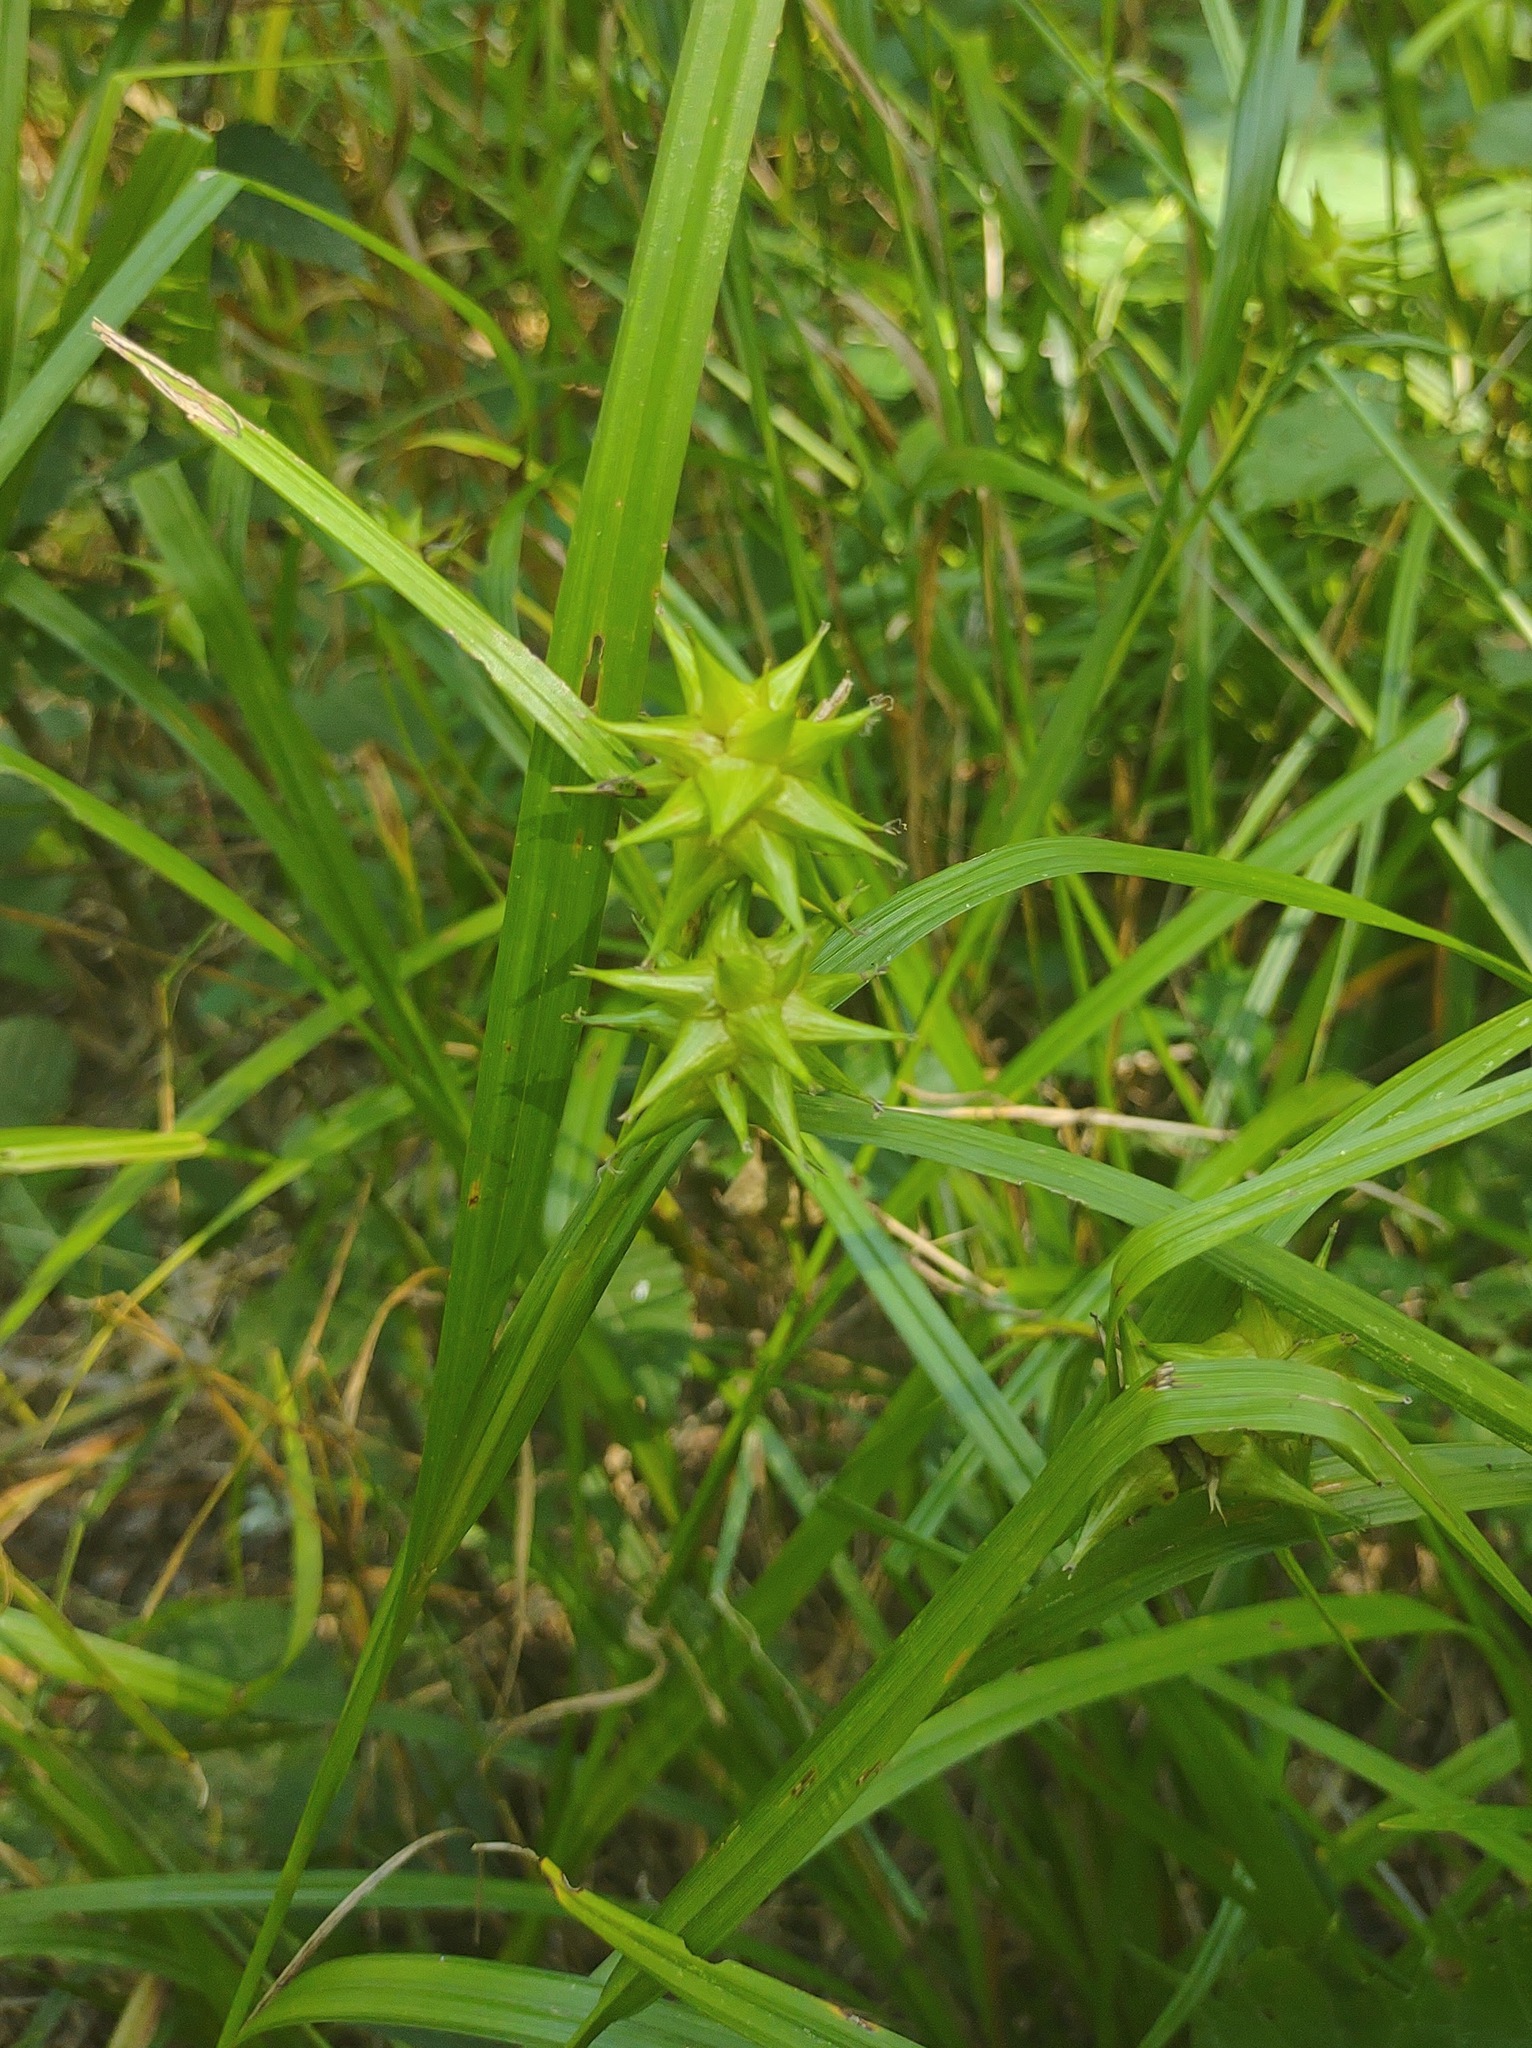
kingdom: Plantae
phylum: Tracheophyta
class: Liliopsida
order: Poales
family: Cyperaceae
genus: Carex
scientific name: Carex grayi
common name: Asa gray's sedge
